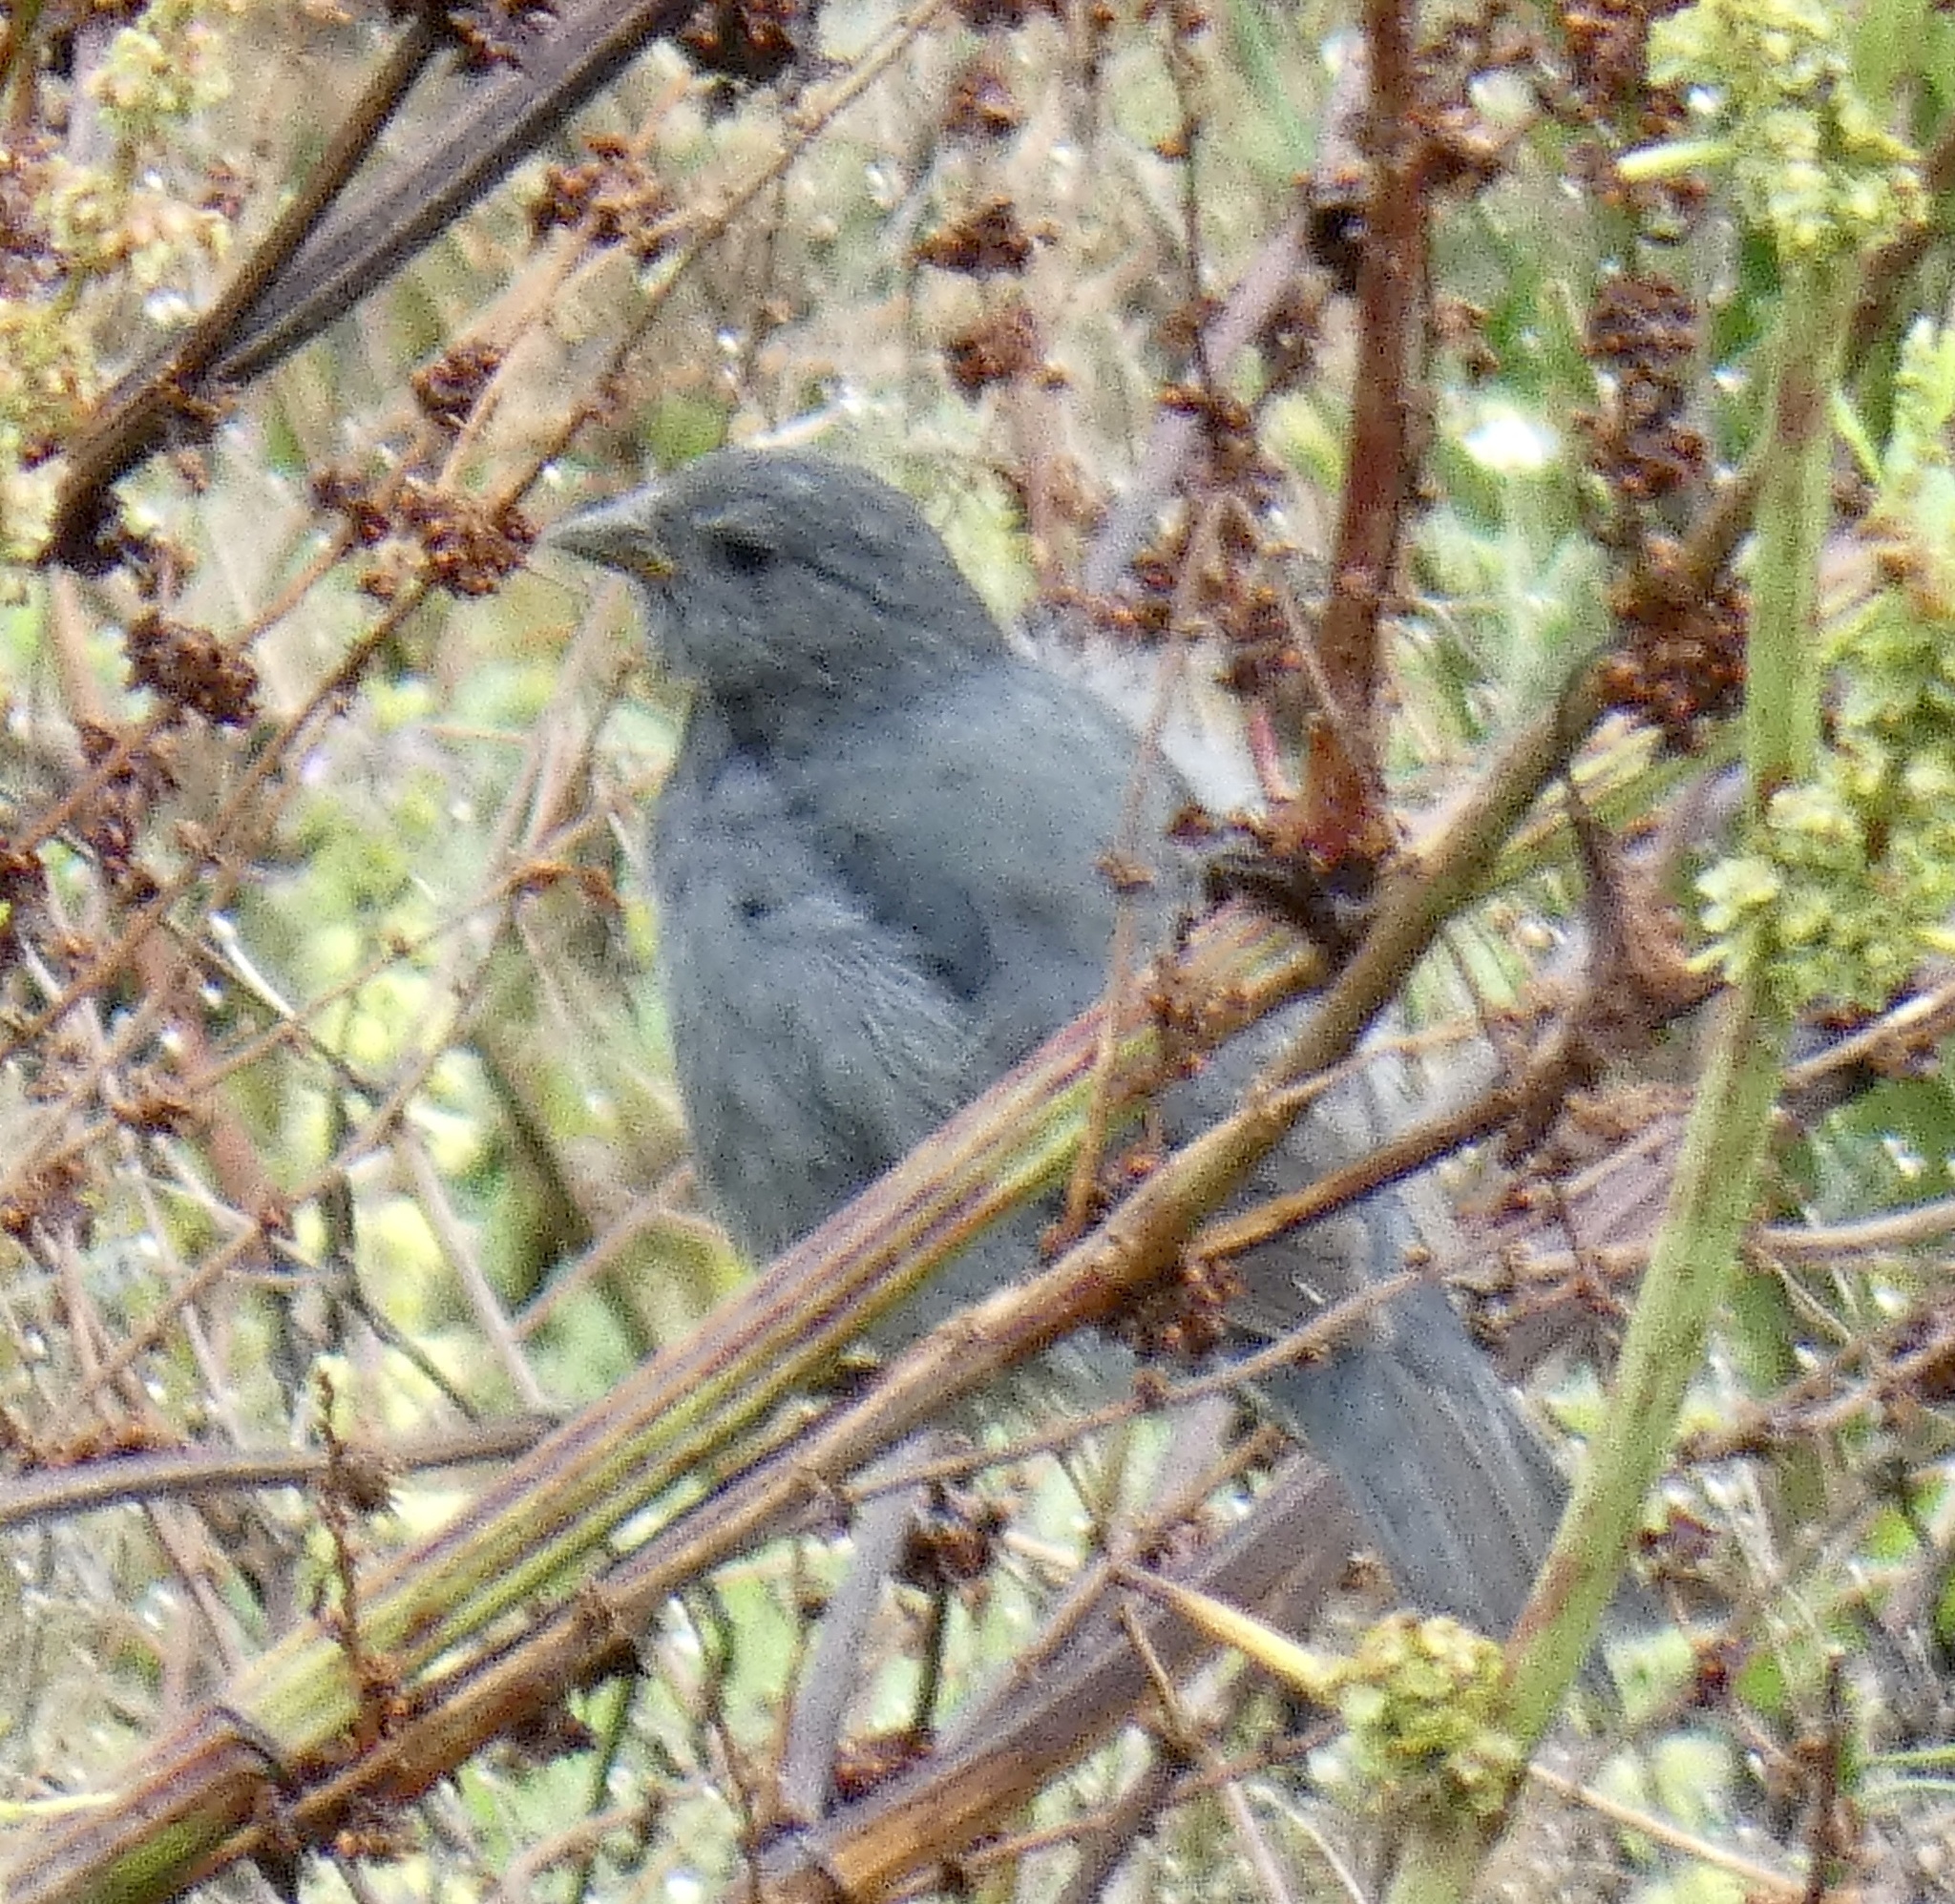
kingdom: Animalia
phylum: Chordata
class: Aves
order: Passeriformes
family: Thraupidae
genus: Haplospiza
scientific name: Haplospiza unicolor
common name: Uniform finch
